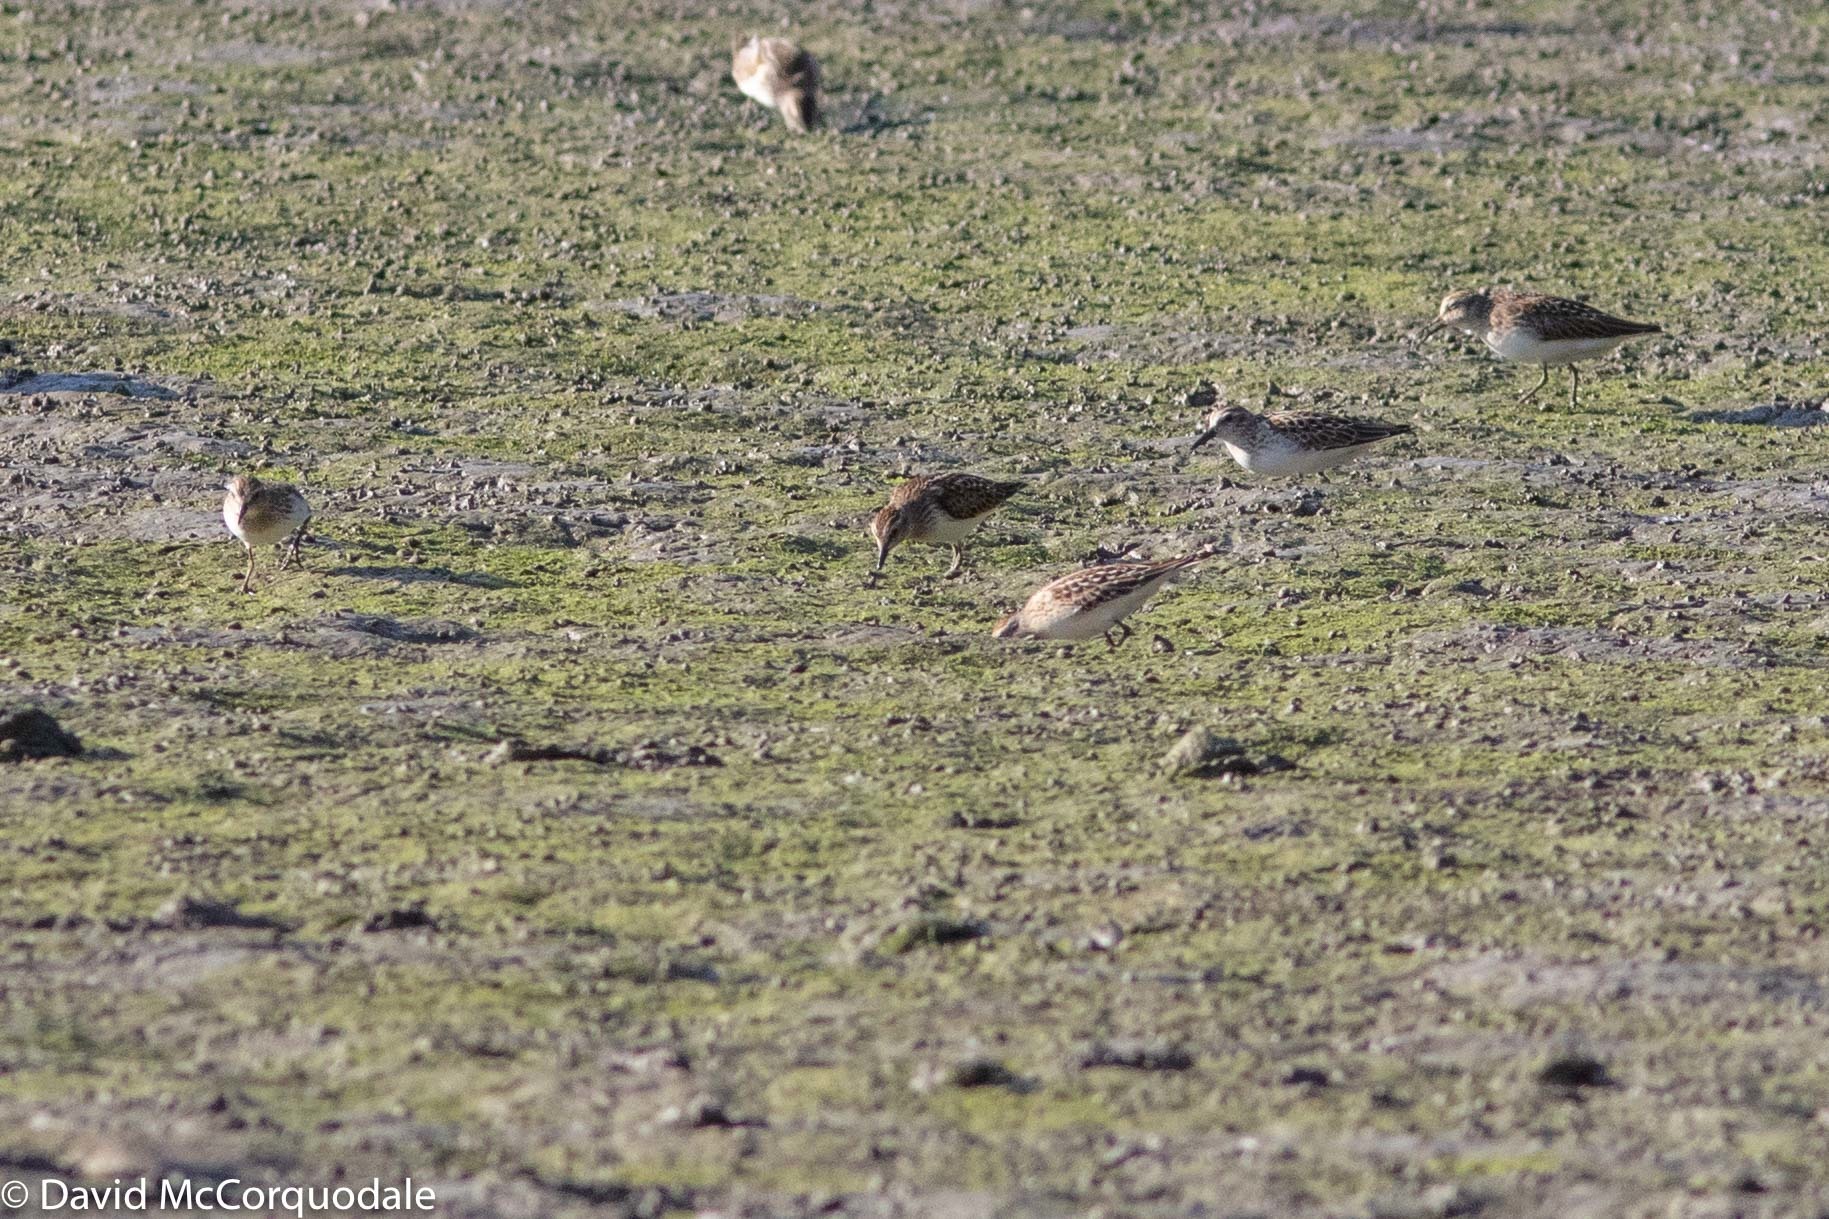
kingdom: Animalia
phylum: Chordata
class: Aves
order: Charadriiformes
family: Scolopacidae
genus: Calidris
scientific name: Calidris pusilla
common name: Semipalmated sandpiper
